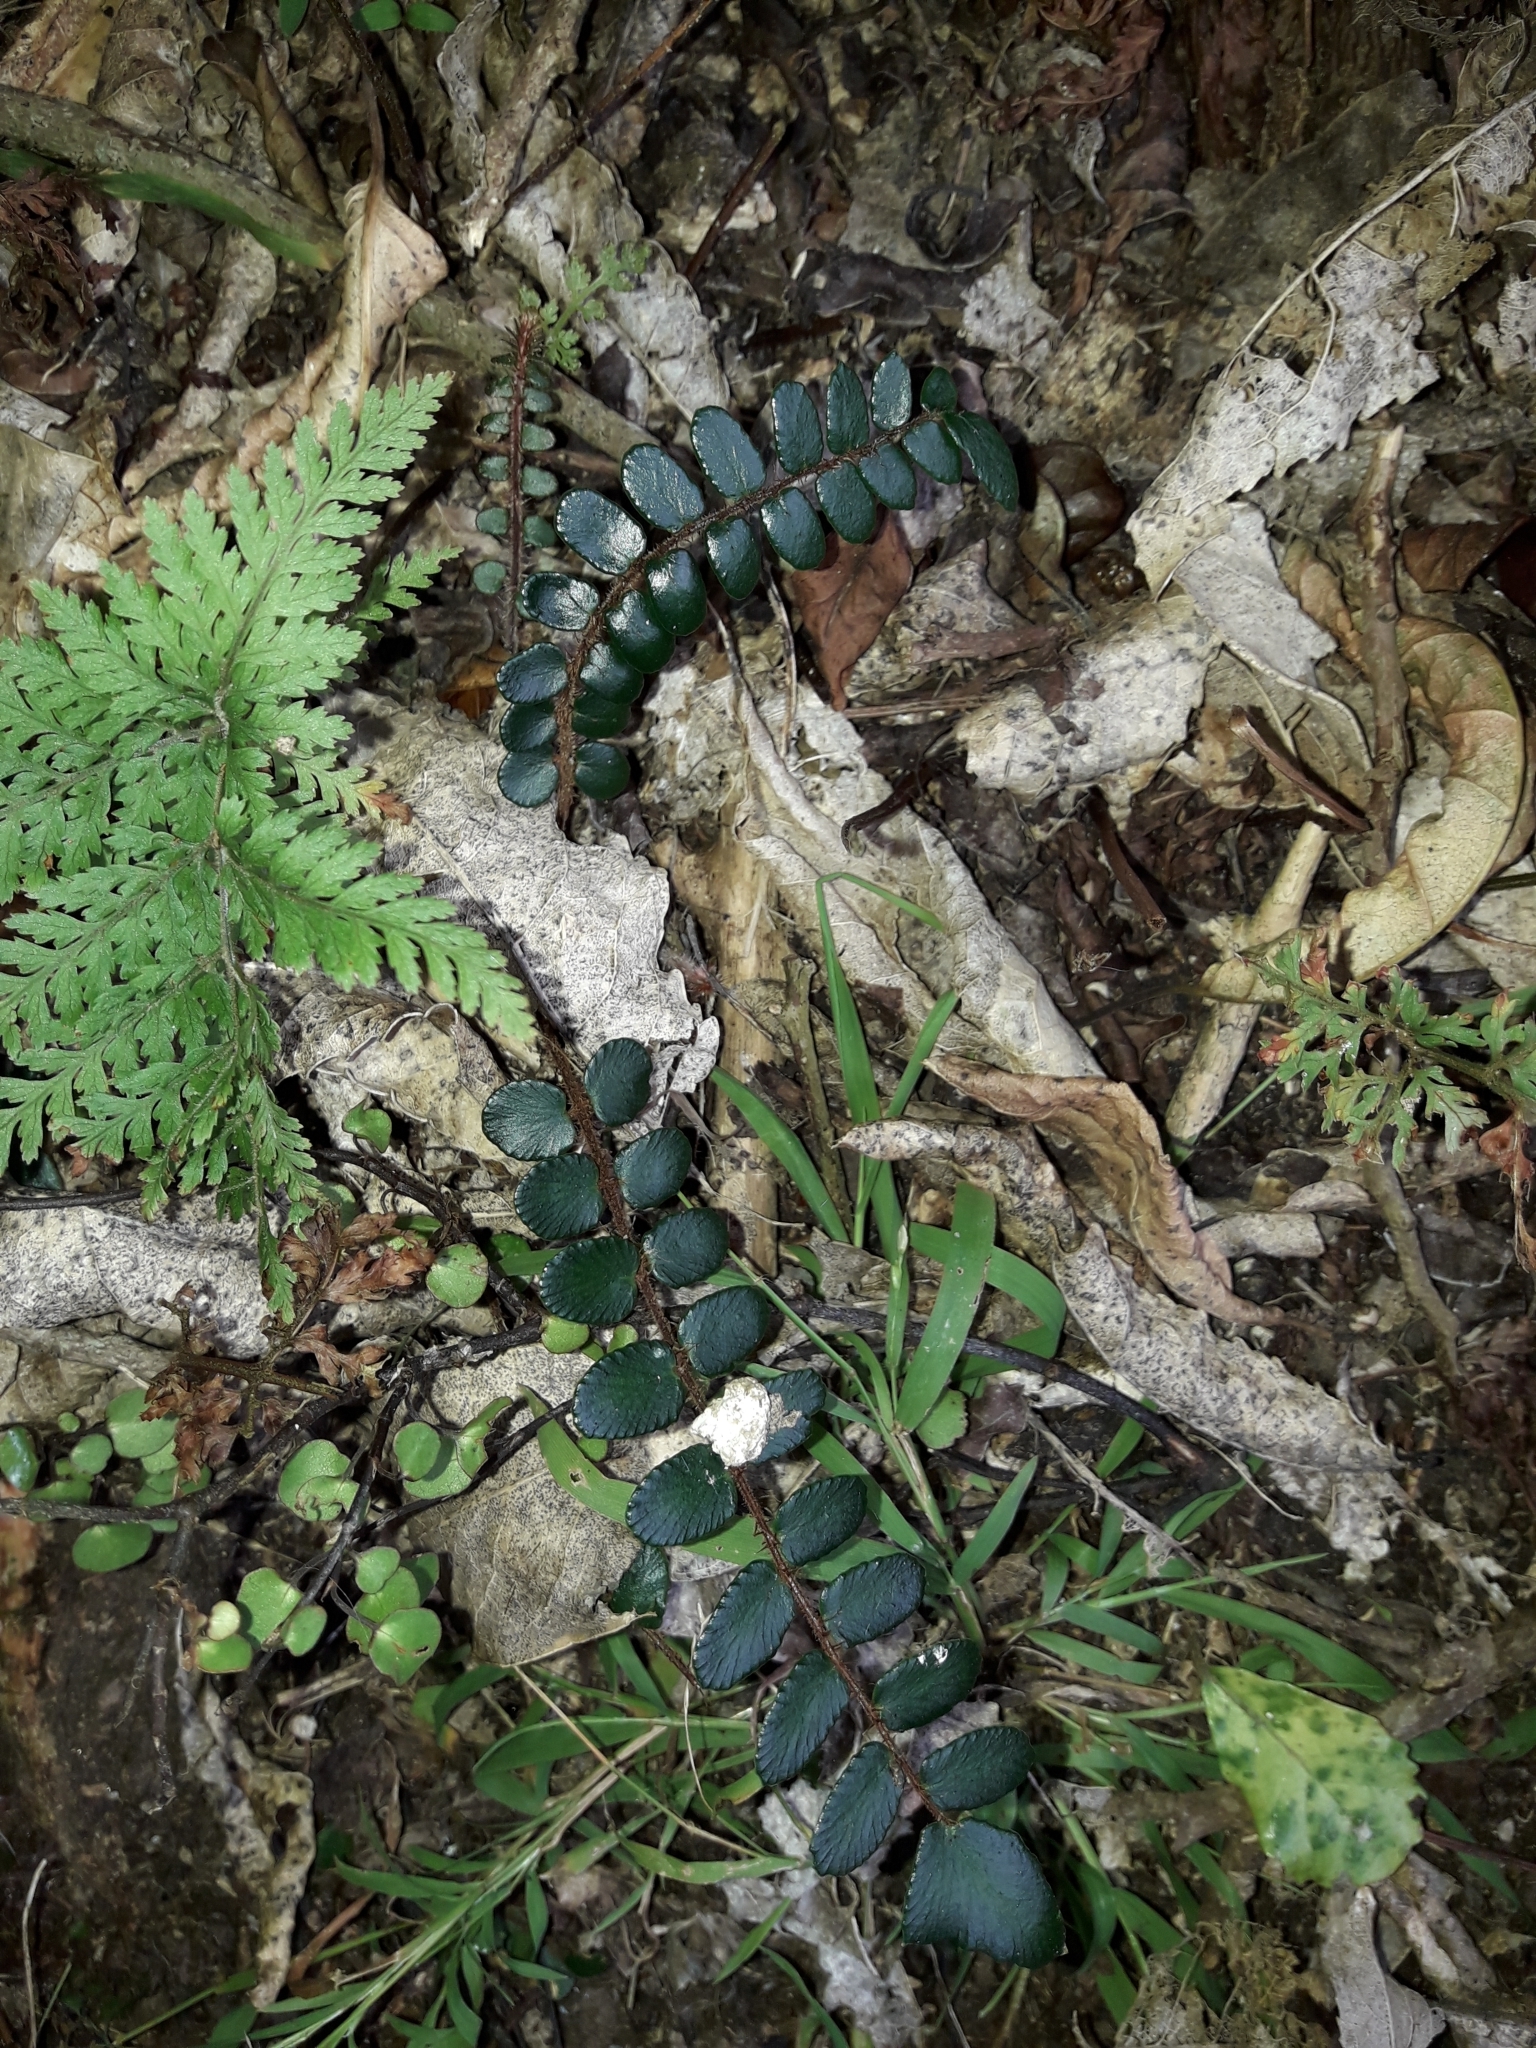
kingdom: Plantae
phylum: Tracheophyta
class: Polypodiopsida
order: Polypodiales
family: Pteridaceae
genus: Pellaea
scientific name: Pellaea rotundifolia
